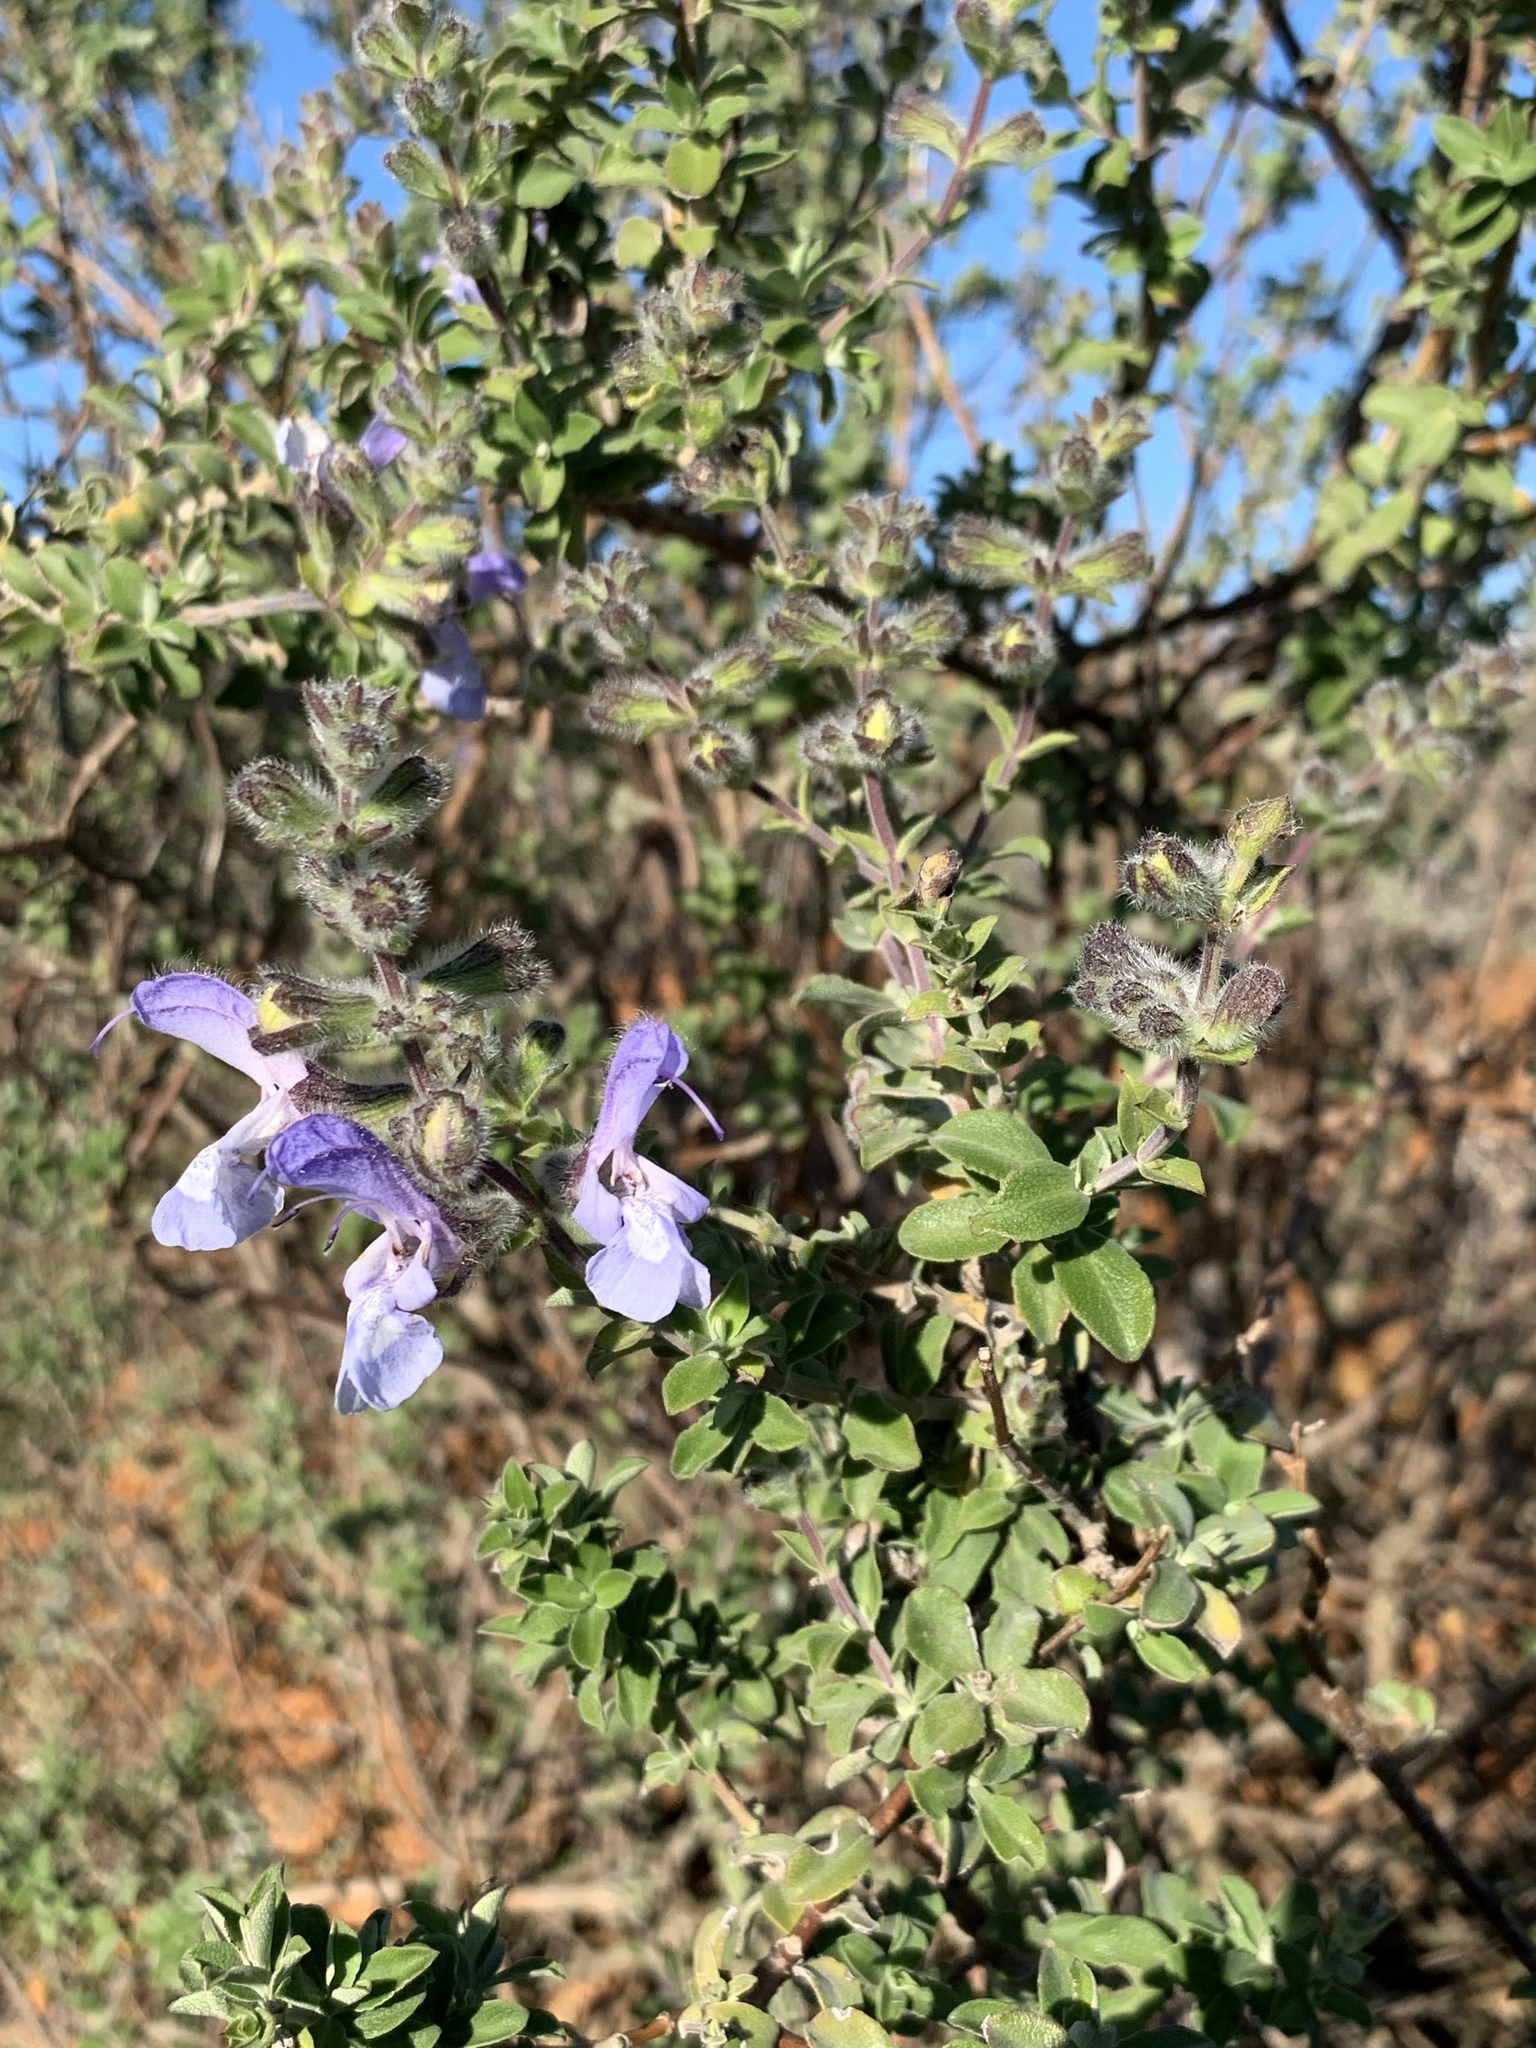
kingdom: Plantae
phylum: Tracheophyta
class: Magnoliopsida
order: Lamiales
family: Lamiaceae
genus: Salvia
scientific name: Salvia africana
